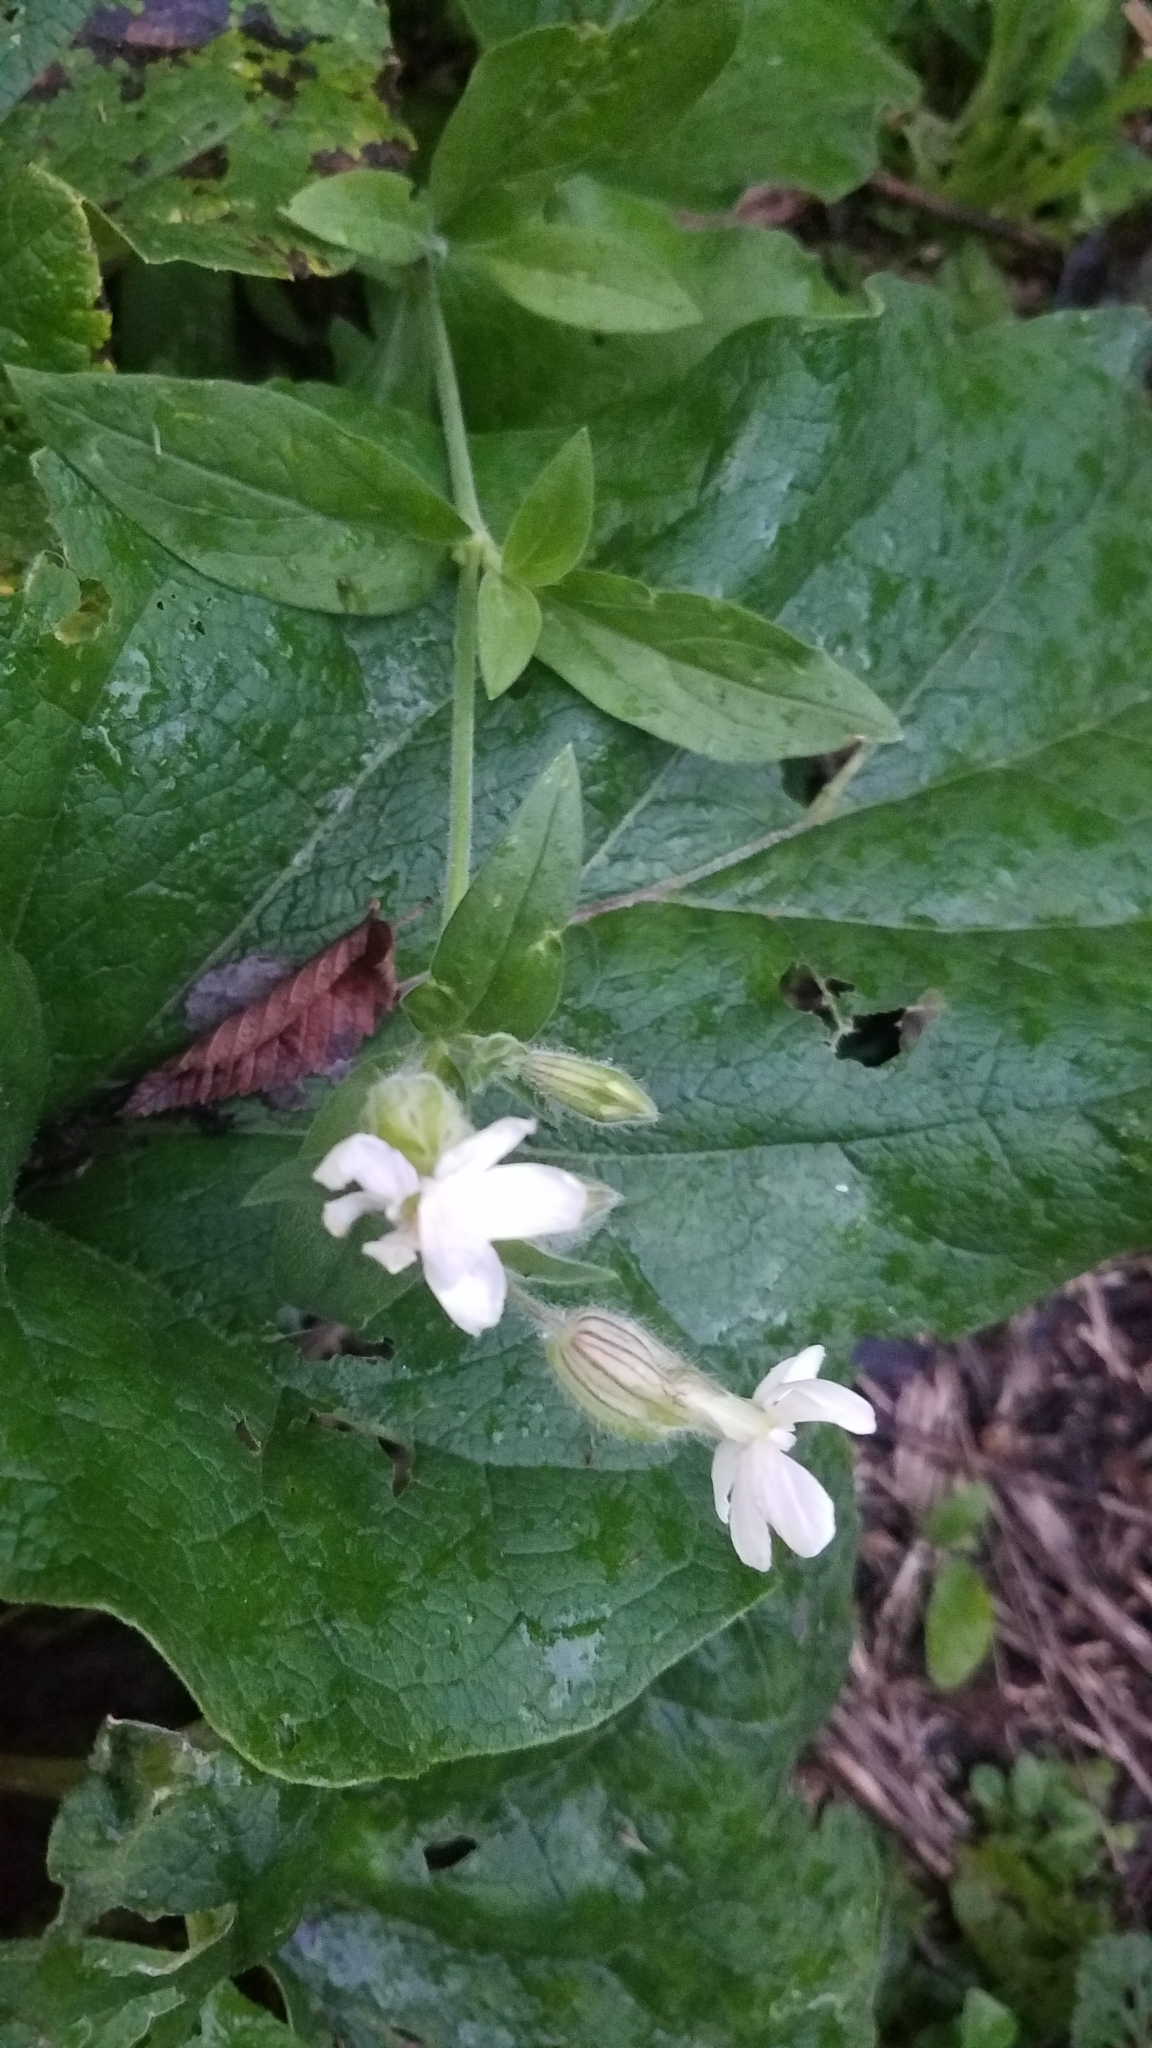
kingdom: Plantae
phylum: Tracheophyta
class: Magnoliopsida
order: Caryophyllales
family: Caryophyllaceae
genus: Silene
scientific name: Silene latifolia
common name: White campion
